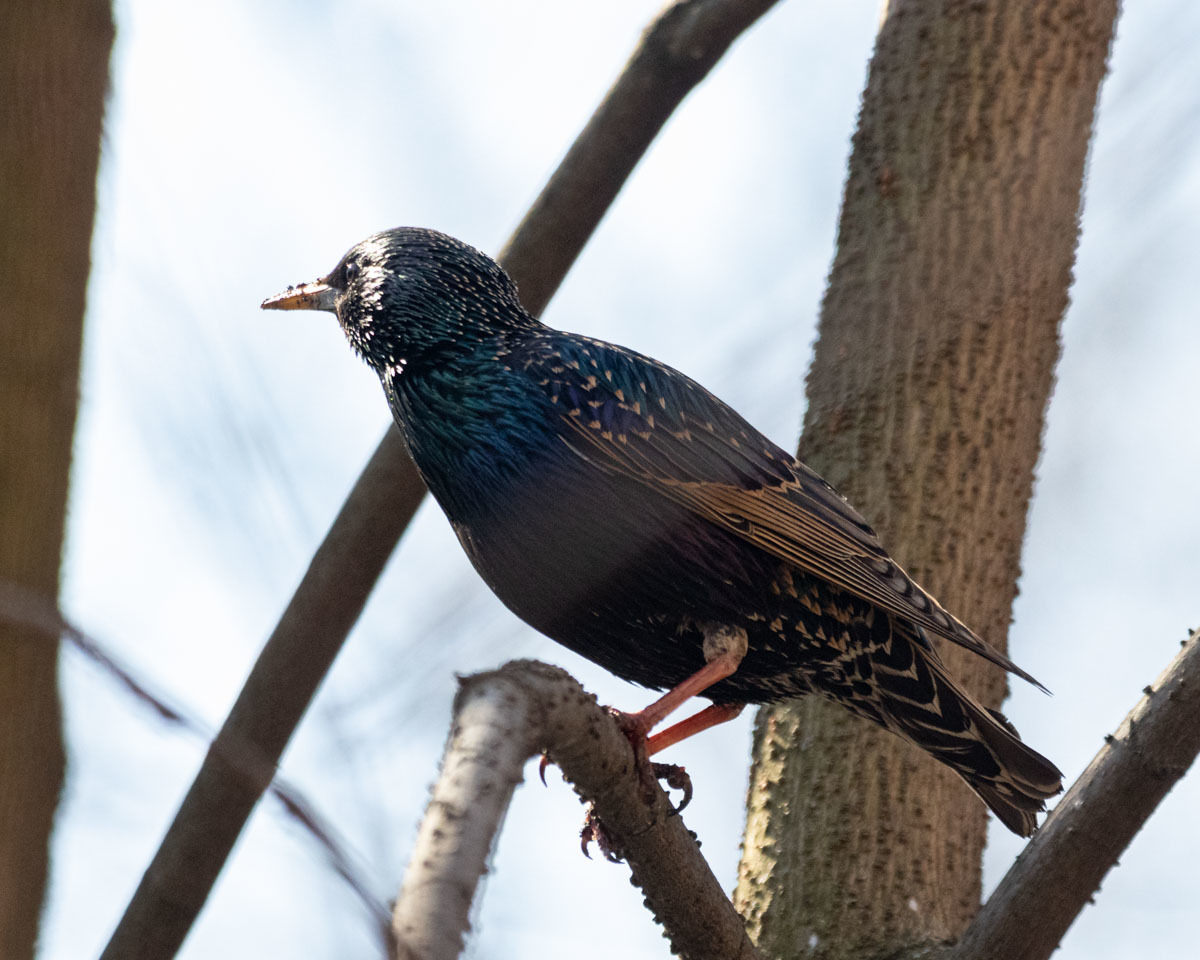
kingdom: Animalia
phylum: Chordata
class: Aves
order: Passeriformes
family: Sturnidae
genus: Sturnus
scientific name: Sturnus vulgaris
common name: Common starling
